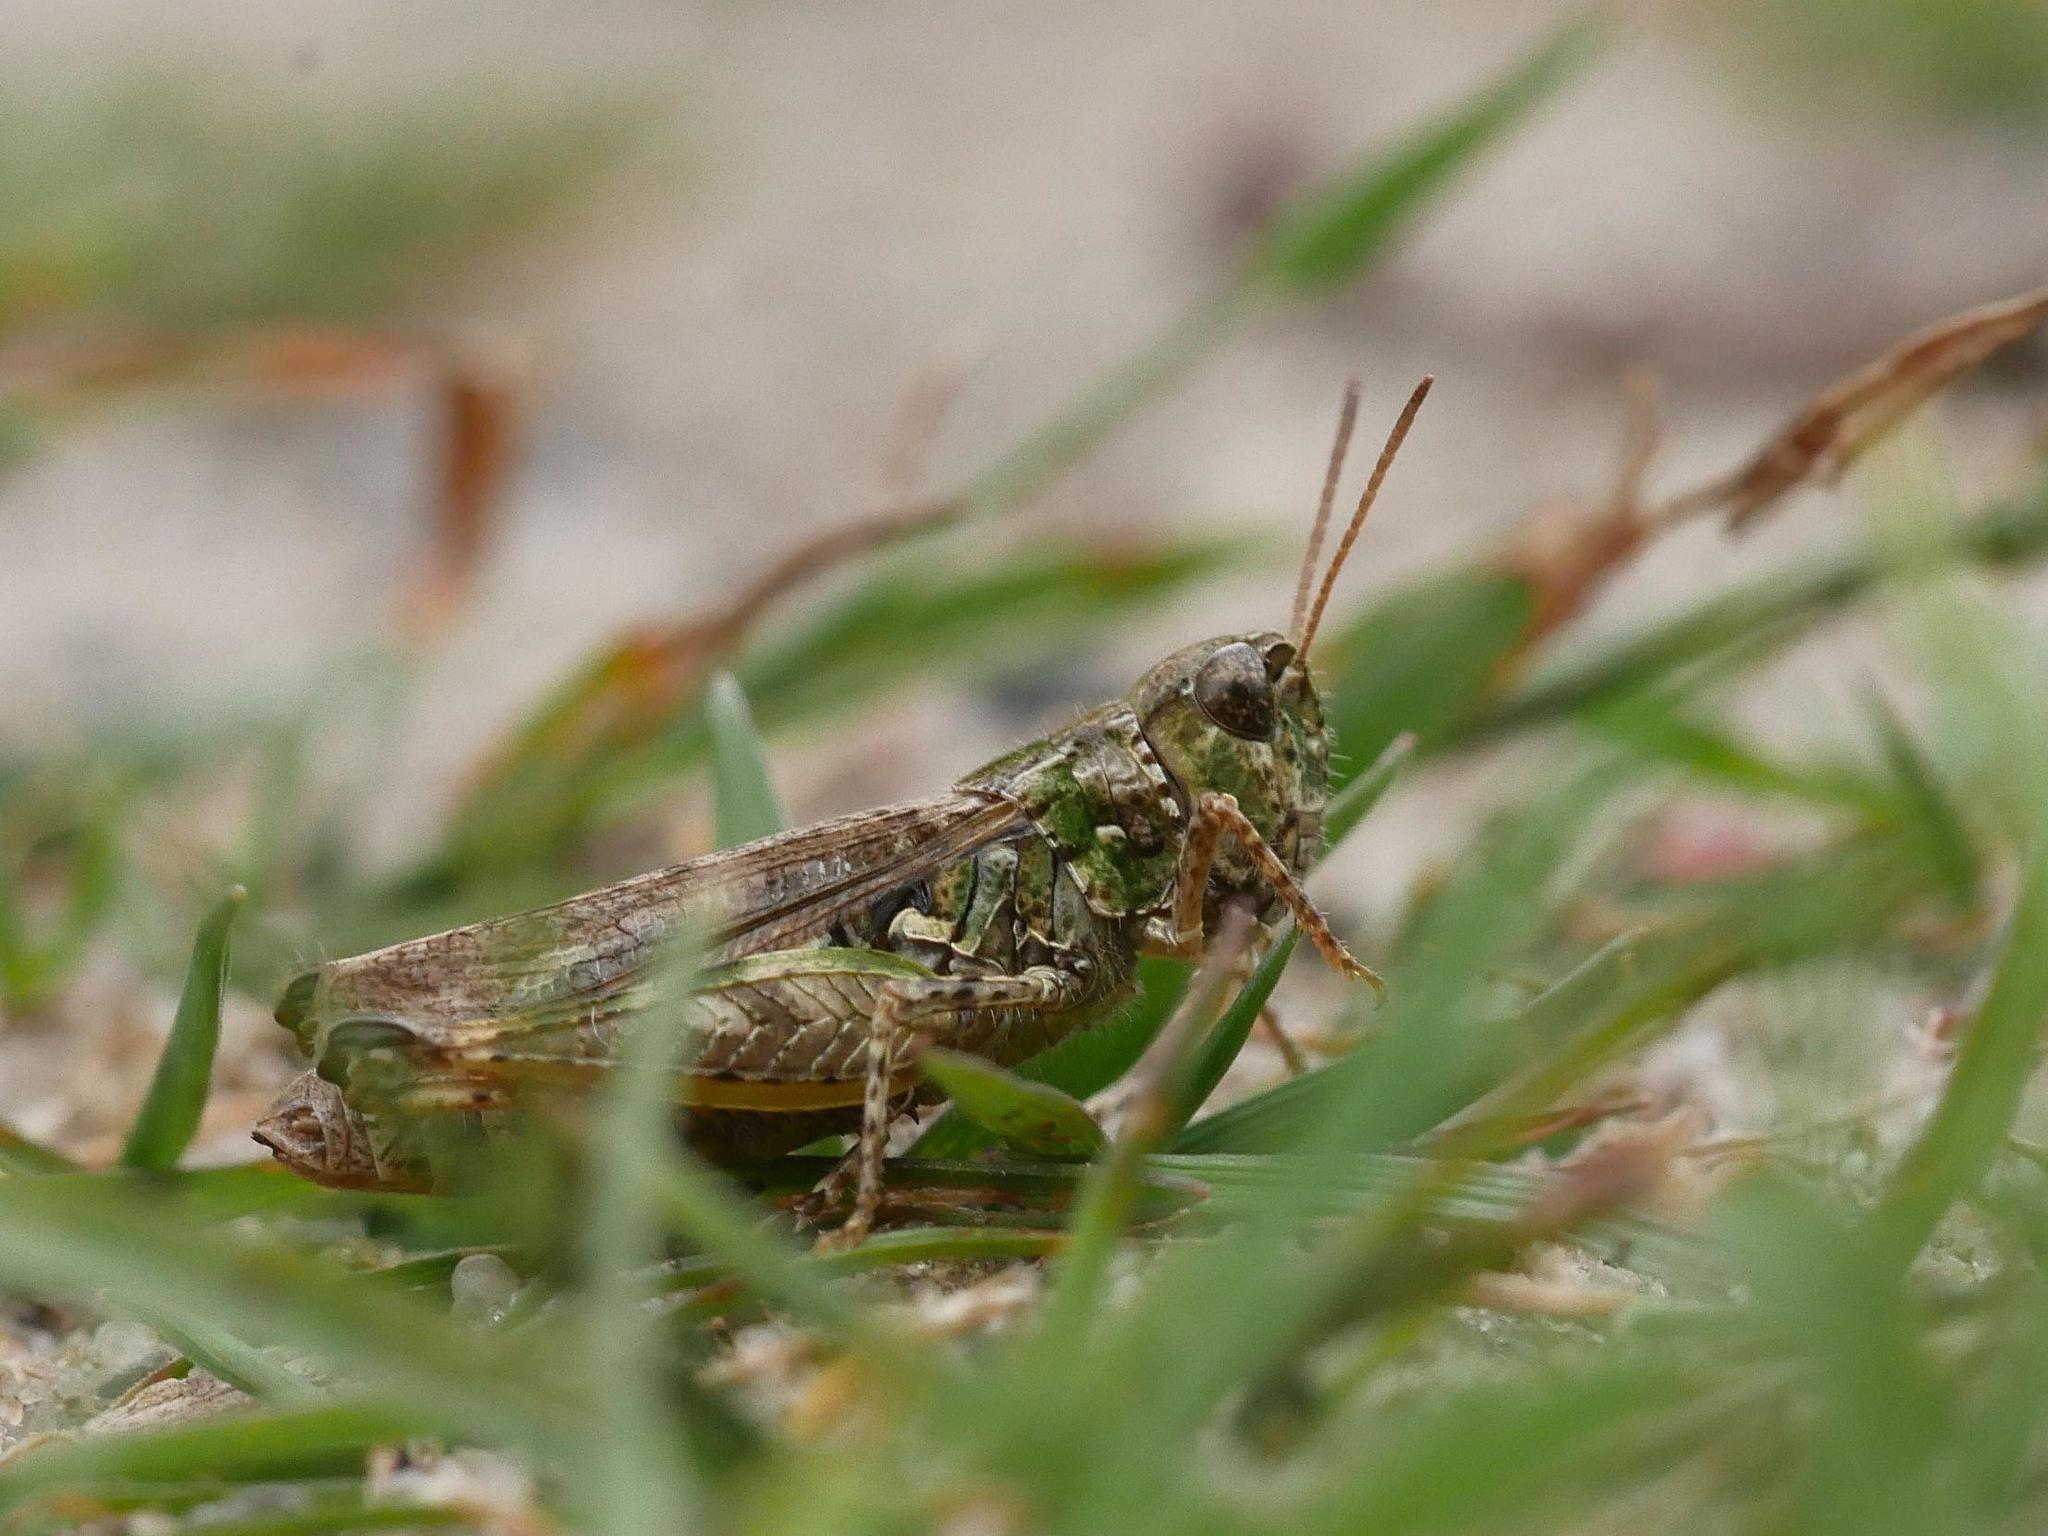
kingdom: Animalia
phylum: Arthropoda
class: Insecta
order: Orthoptera
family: Acrididae
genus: Myrmeleotettix
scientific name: Myrmeleotettix maculatus
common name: Mottled grasshopper
